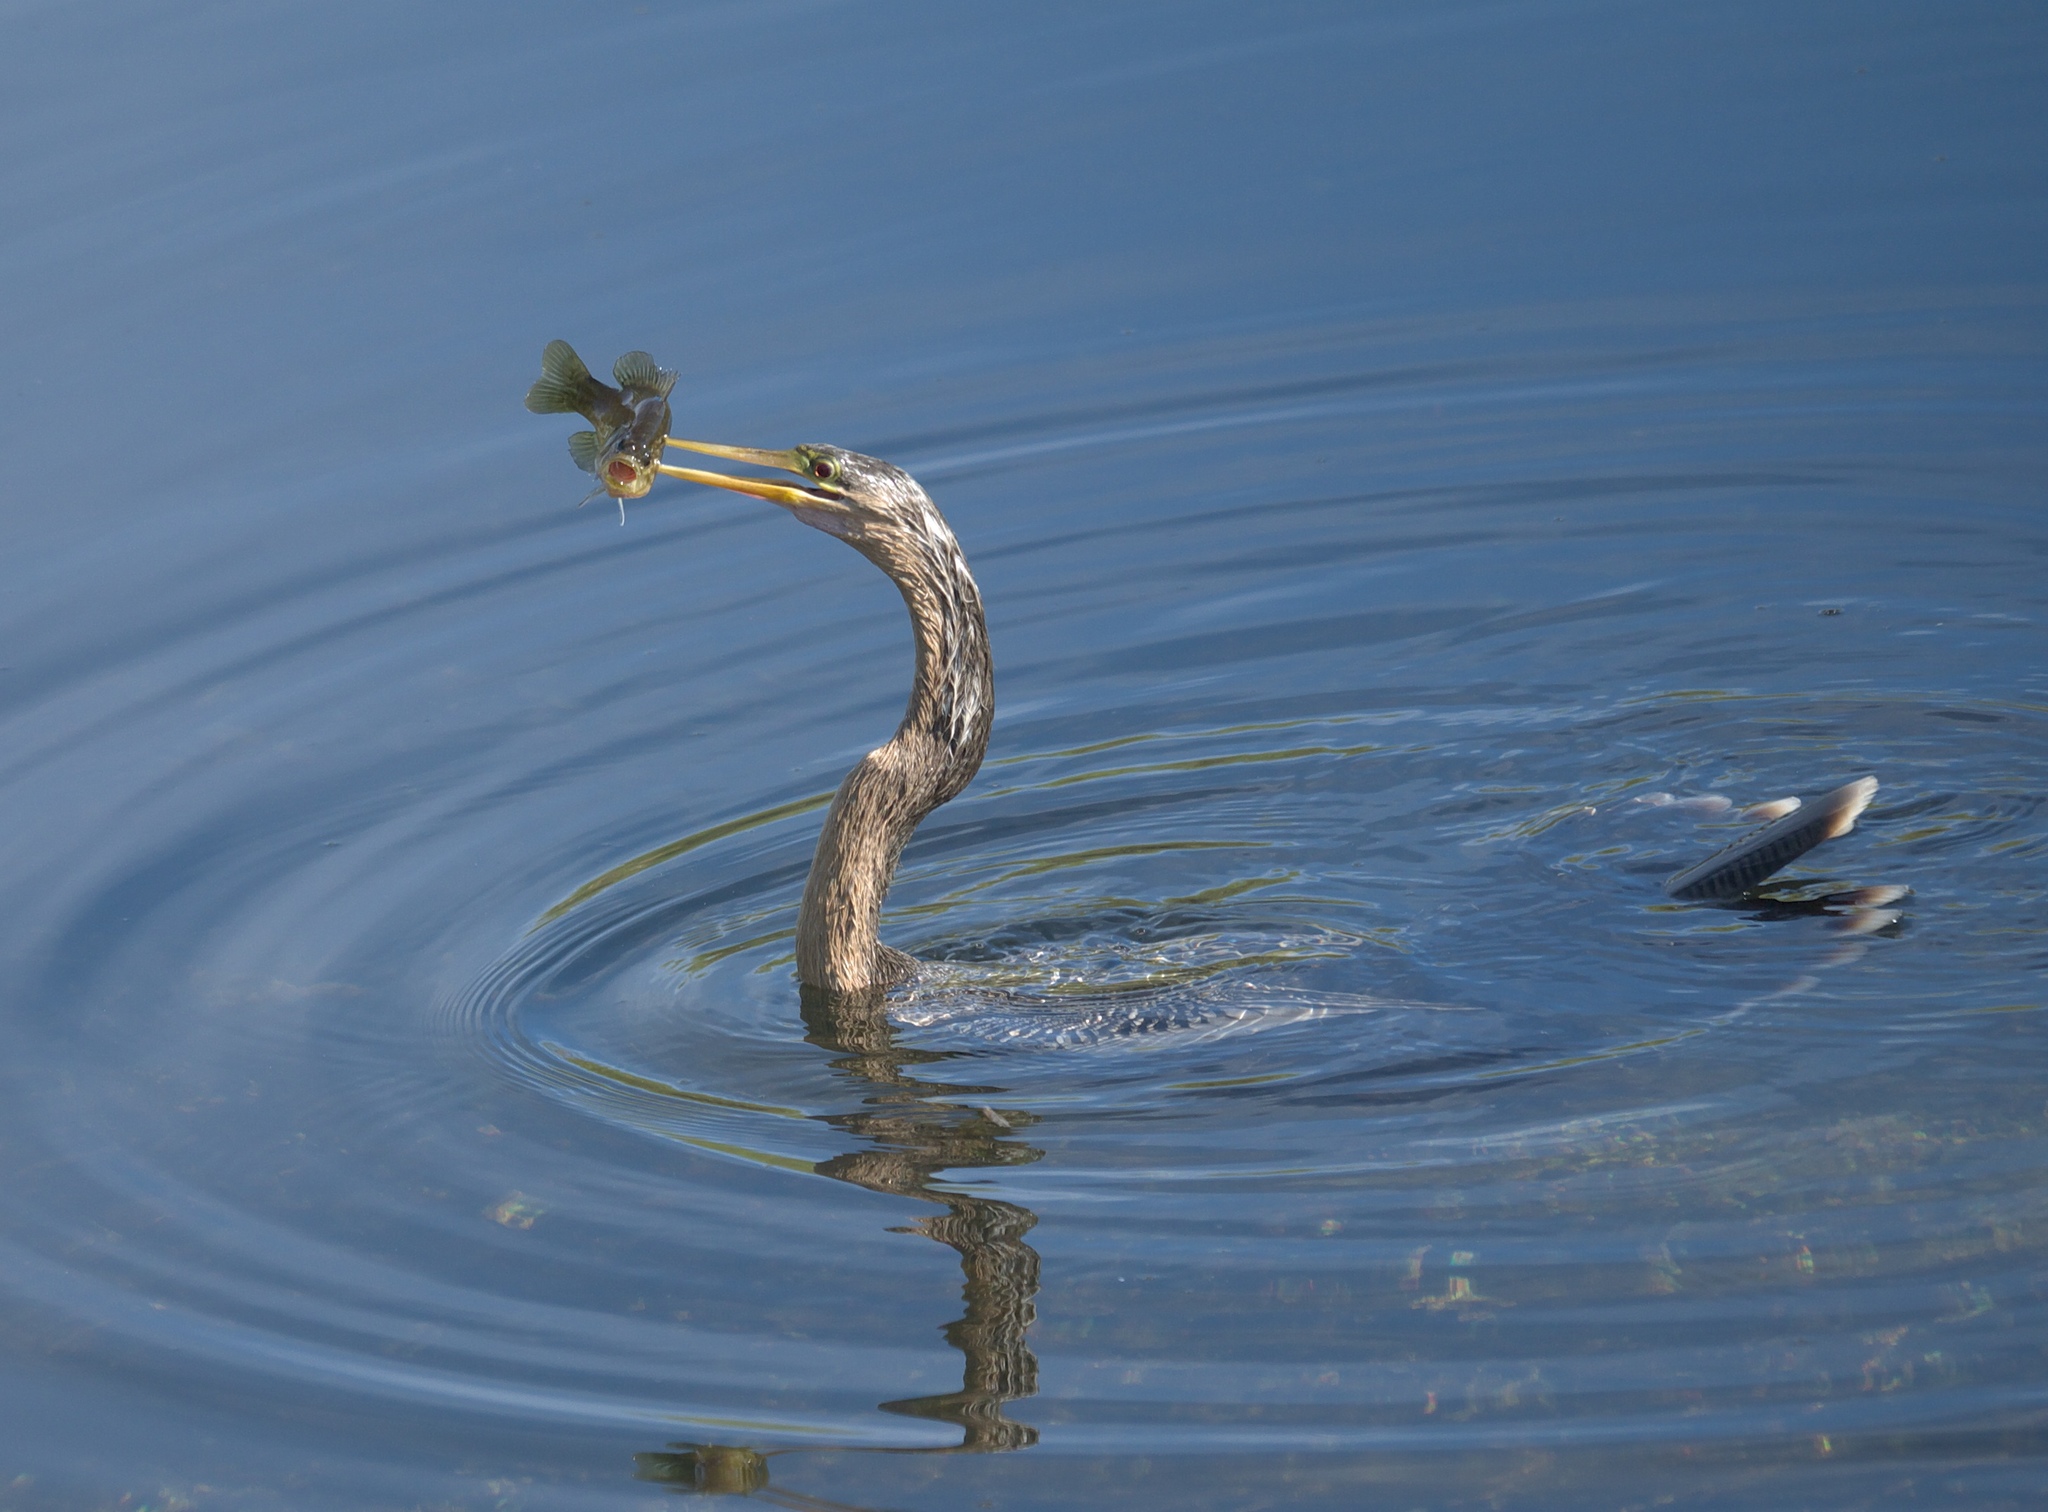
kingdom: Animalia
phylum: Chordata
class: Aves
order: Suliformes
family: Anhingidae
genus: Anhinga
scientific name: Anhinga anhinga
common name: Anhinga
